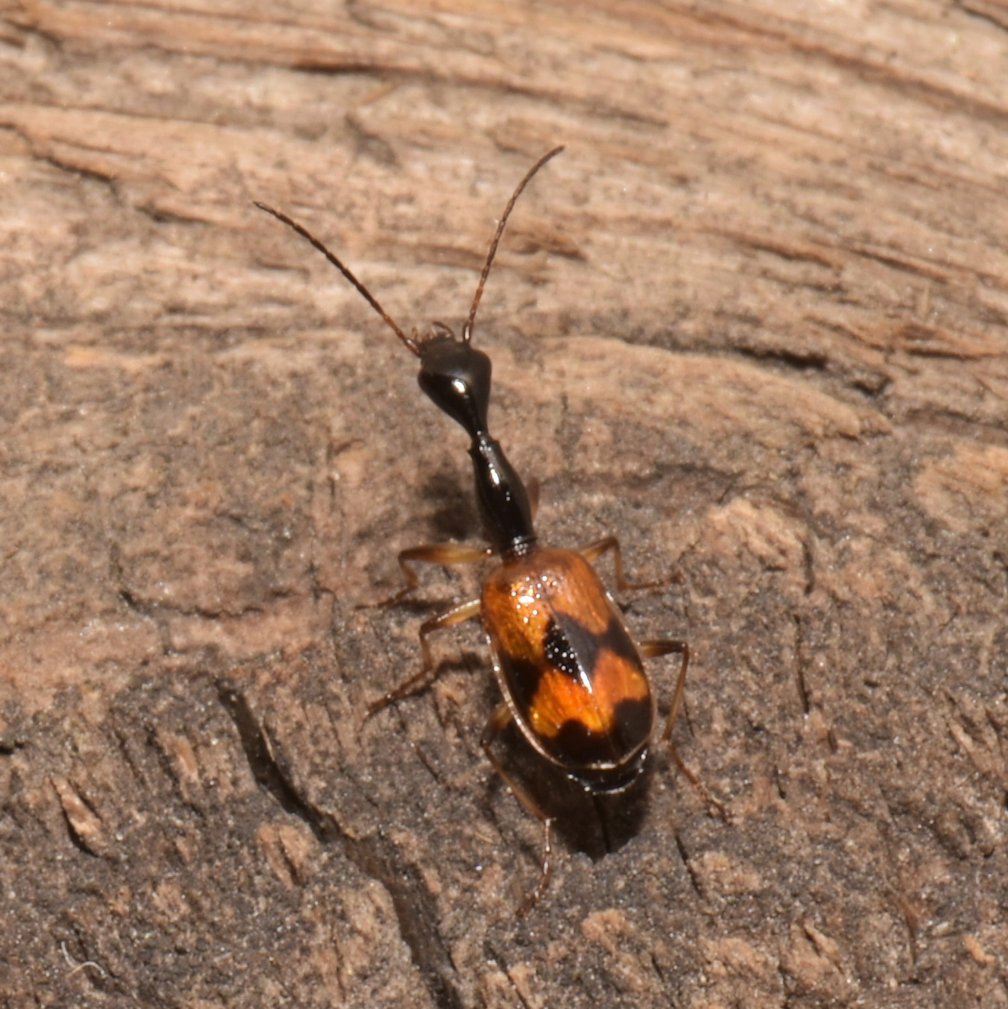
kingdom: Animalia
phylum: Arthropoda
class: Insecta
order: Coleoptera
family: Carabidae
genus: Colliuris
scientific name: Colliuris pensylvanica
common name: Long-necked ground beetle
